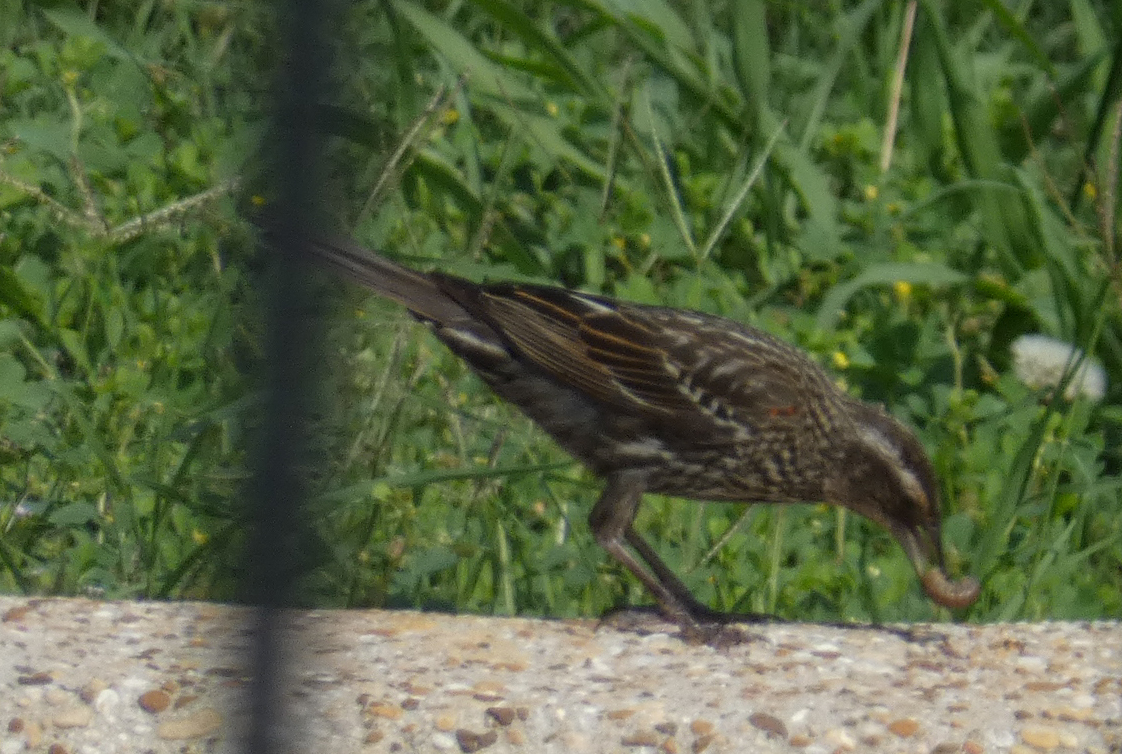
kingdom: Animalia
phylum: Chordata
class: Aves
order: Passeriformes
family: Icteridae
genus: Agelaius
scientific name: Agelaius phoeniceus
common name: Red-winged blackbird
